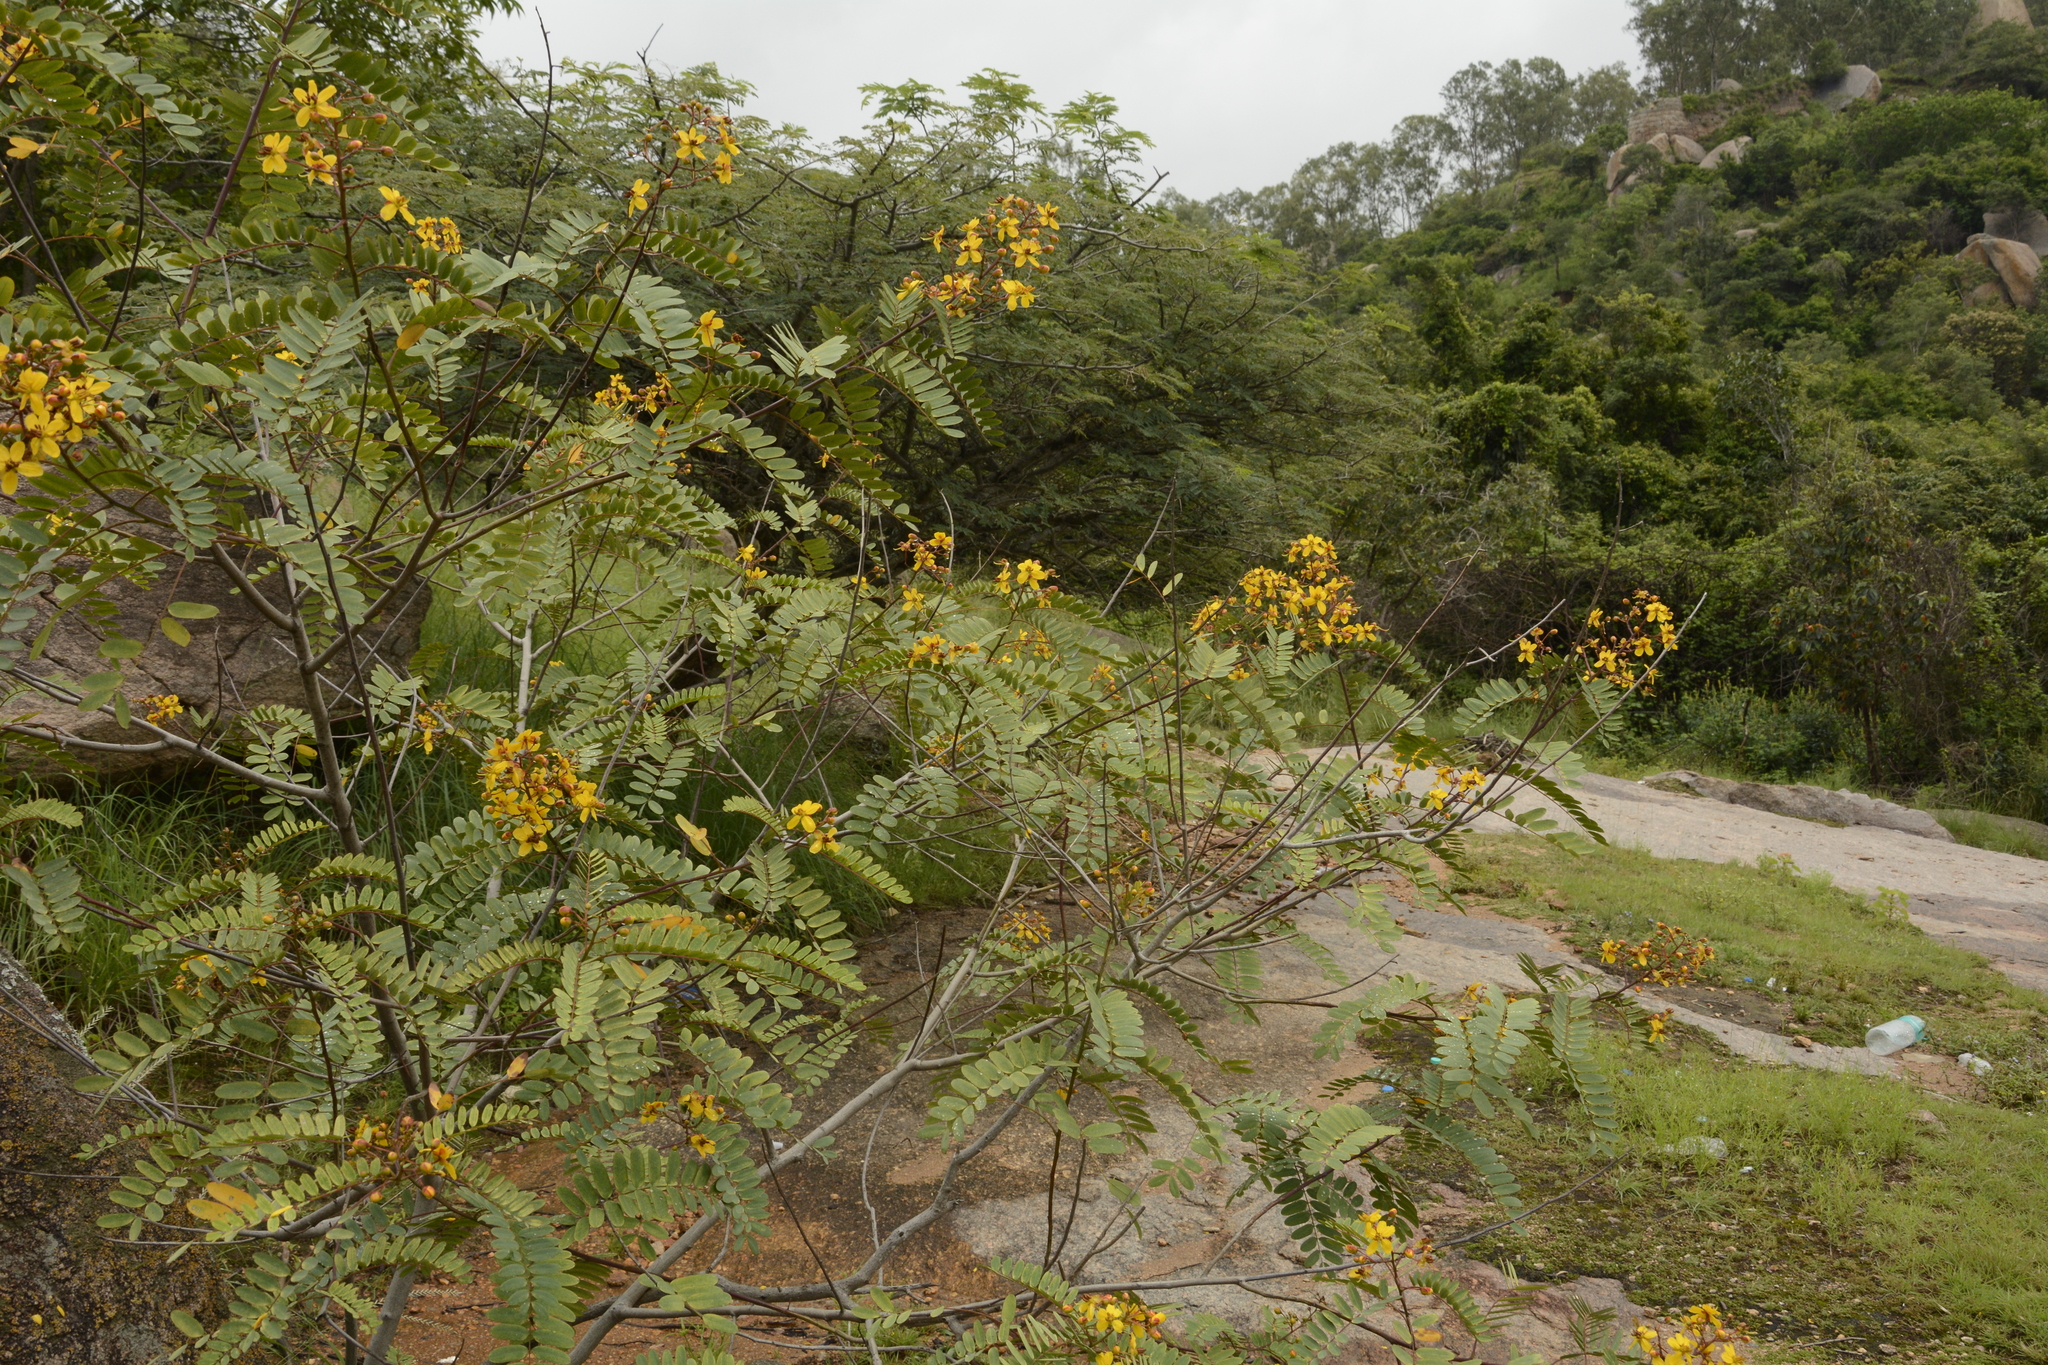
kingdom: Plantae
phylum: Tracheophyta
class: Magnoliopsida
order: Fabales
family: Fabaceae
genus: Senna
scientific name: Senna montana
